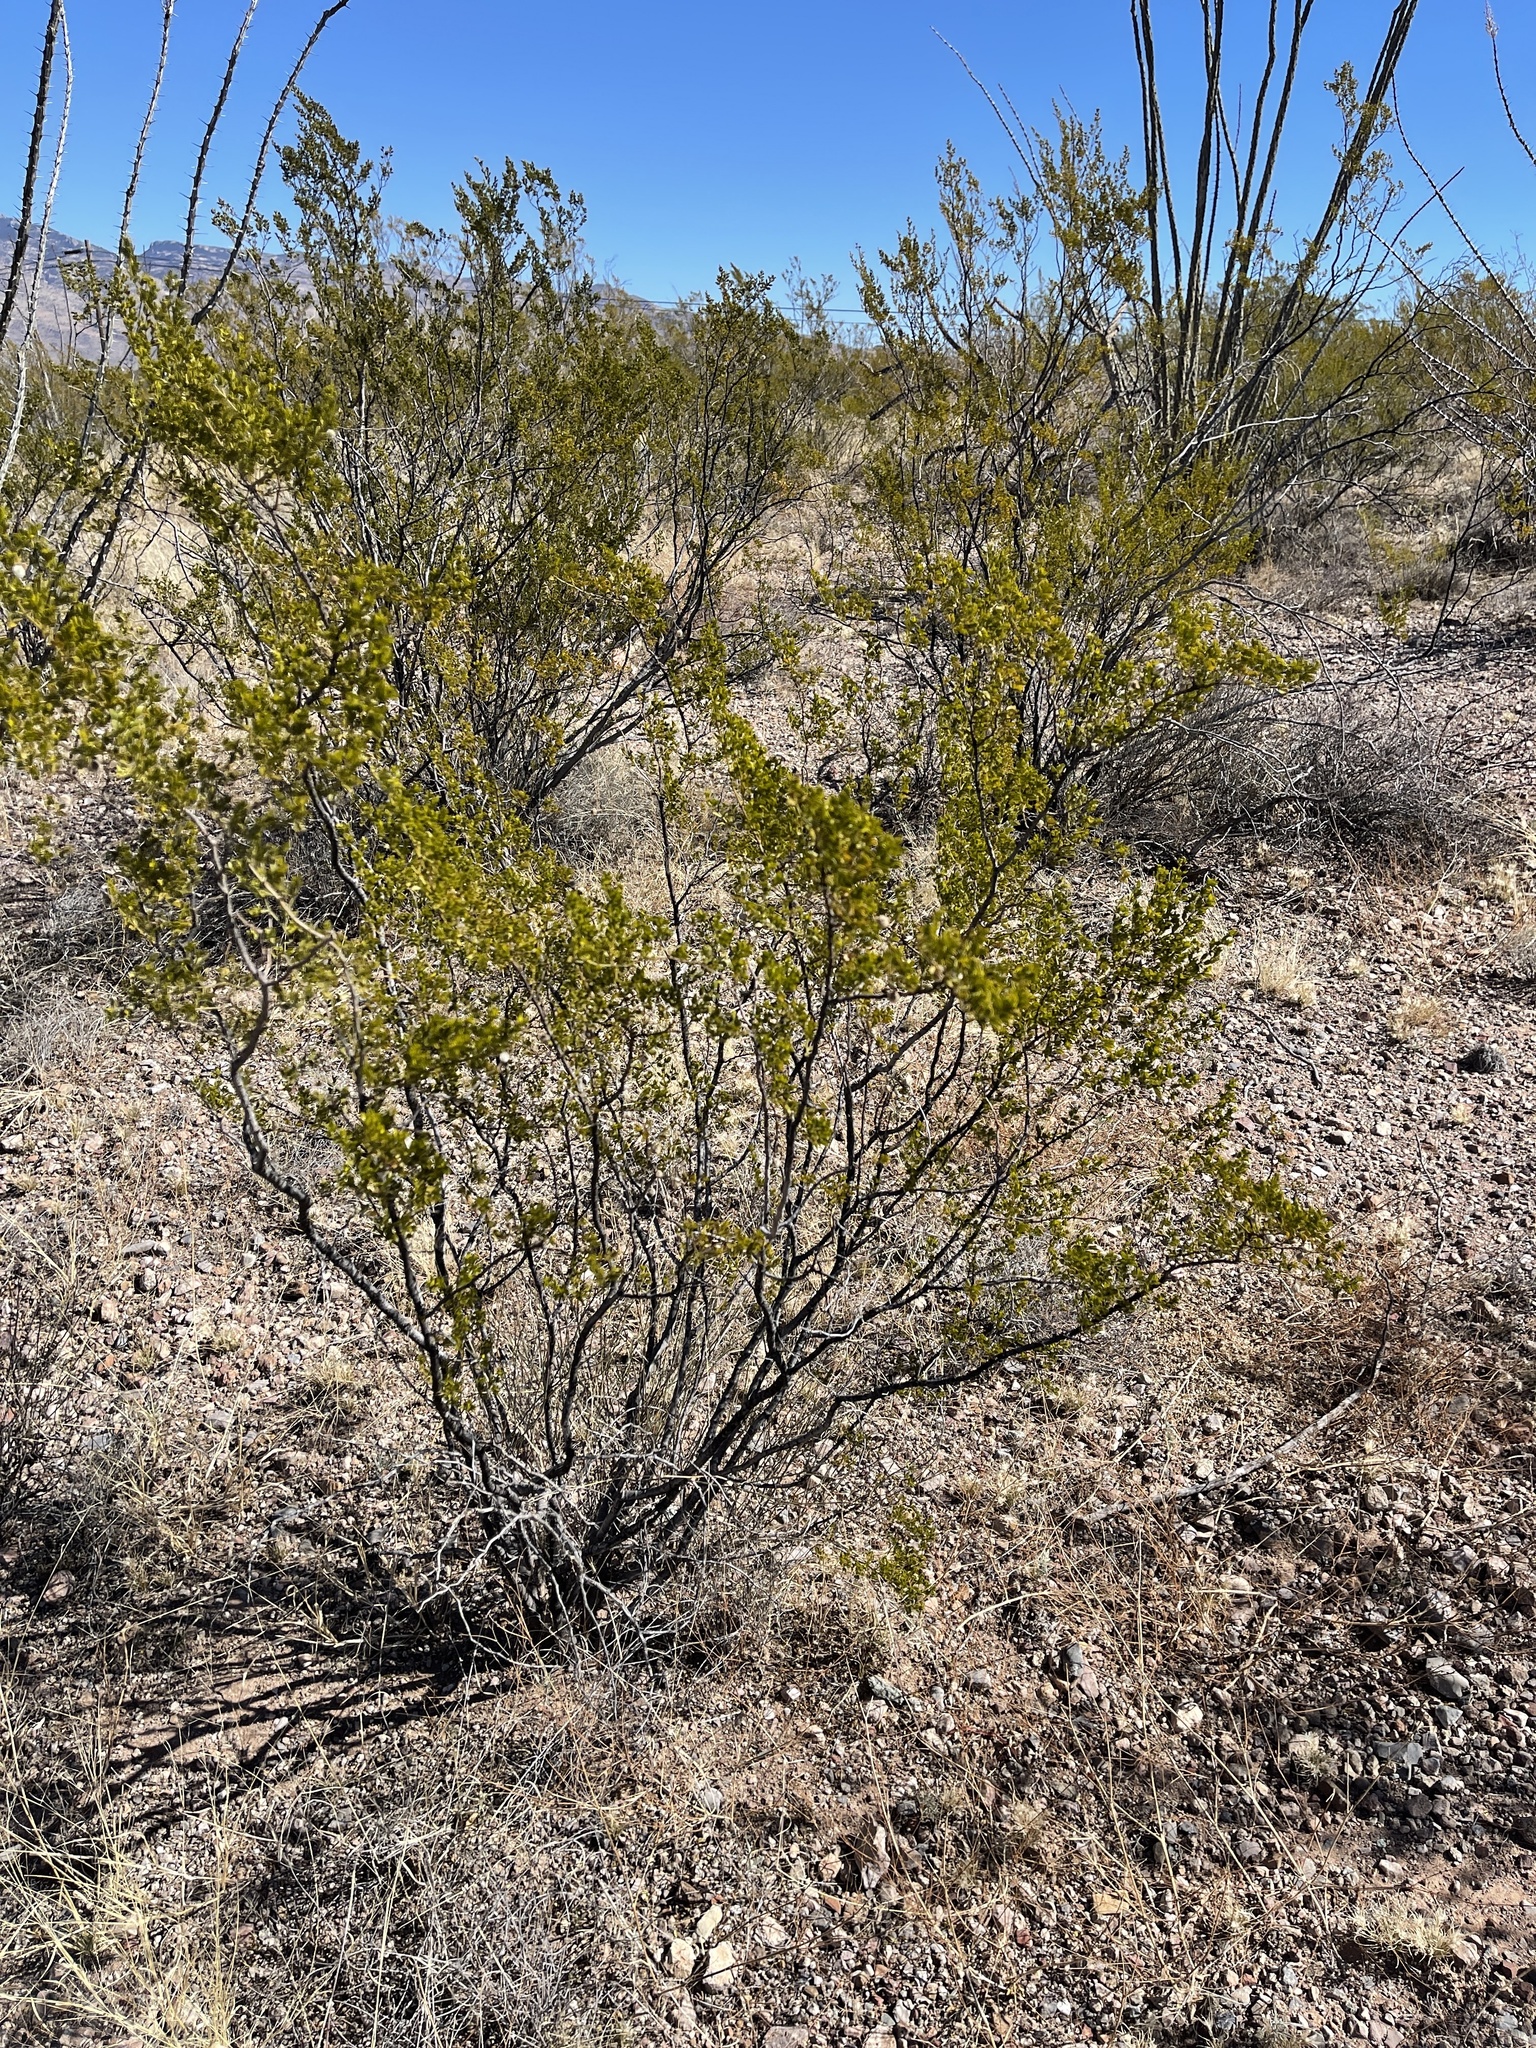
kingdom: Plantae
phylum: Tracheophyta
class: Magnoliopsida
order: Zygophyllales
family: Zygophyllaceae
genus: Larrea
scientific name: Larrea tridentata
